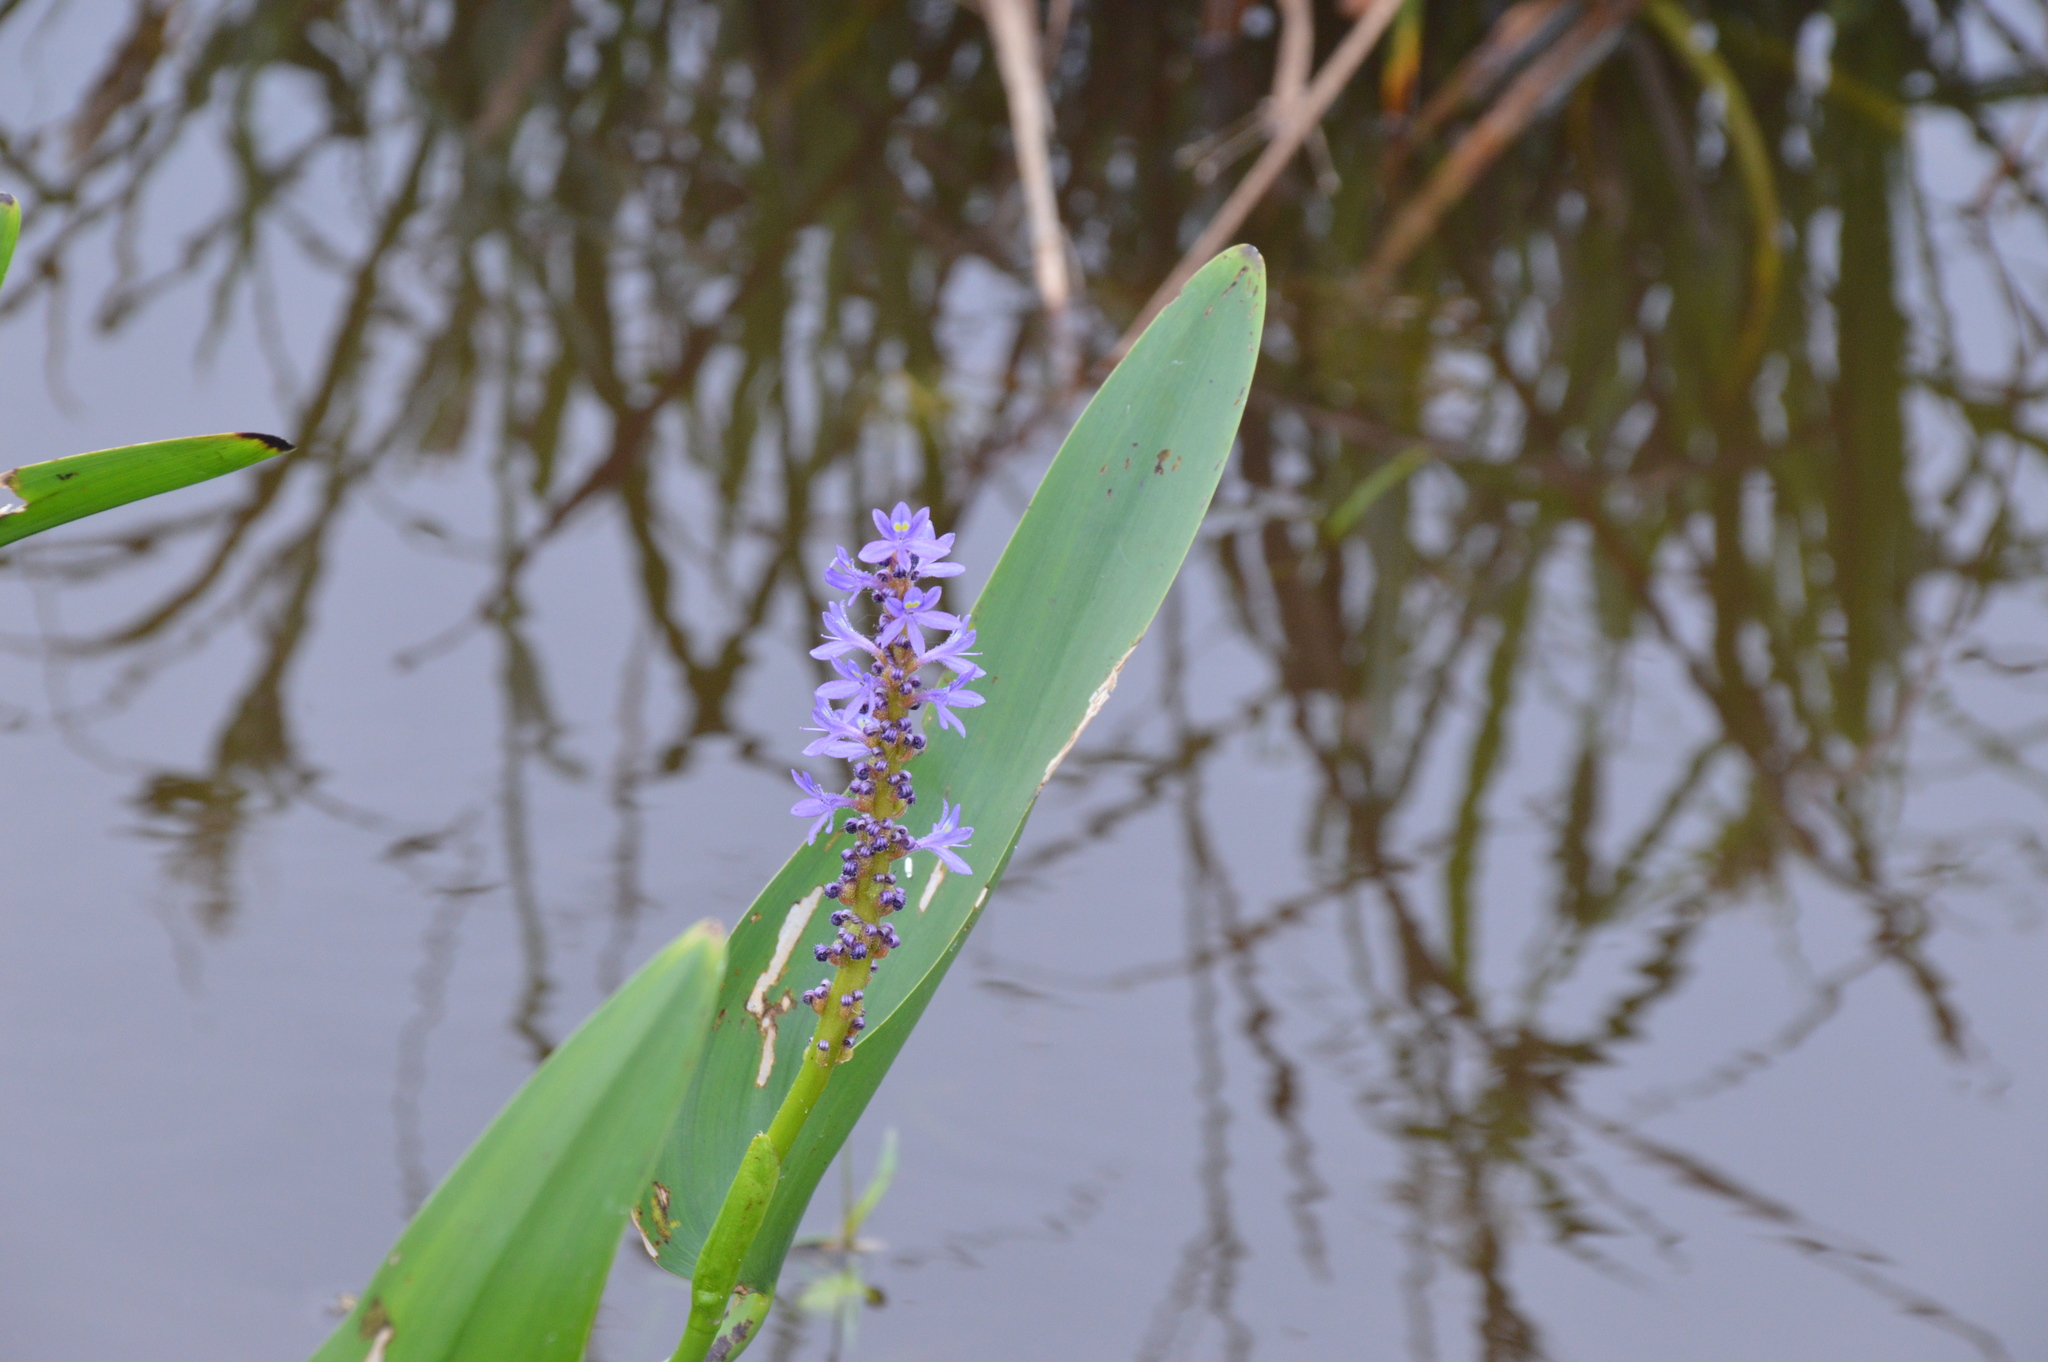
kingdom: Plantae
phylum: Tracheophyta
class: Liliopsida
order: Commelinales
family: Pontederiaceae
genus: Pontederia
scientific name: Pontederia cordata
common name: Pickerelweed
